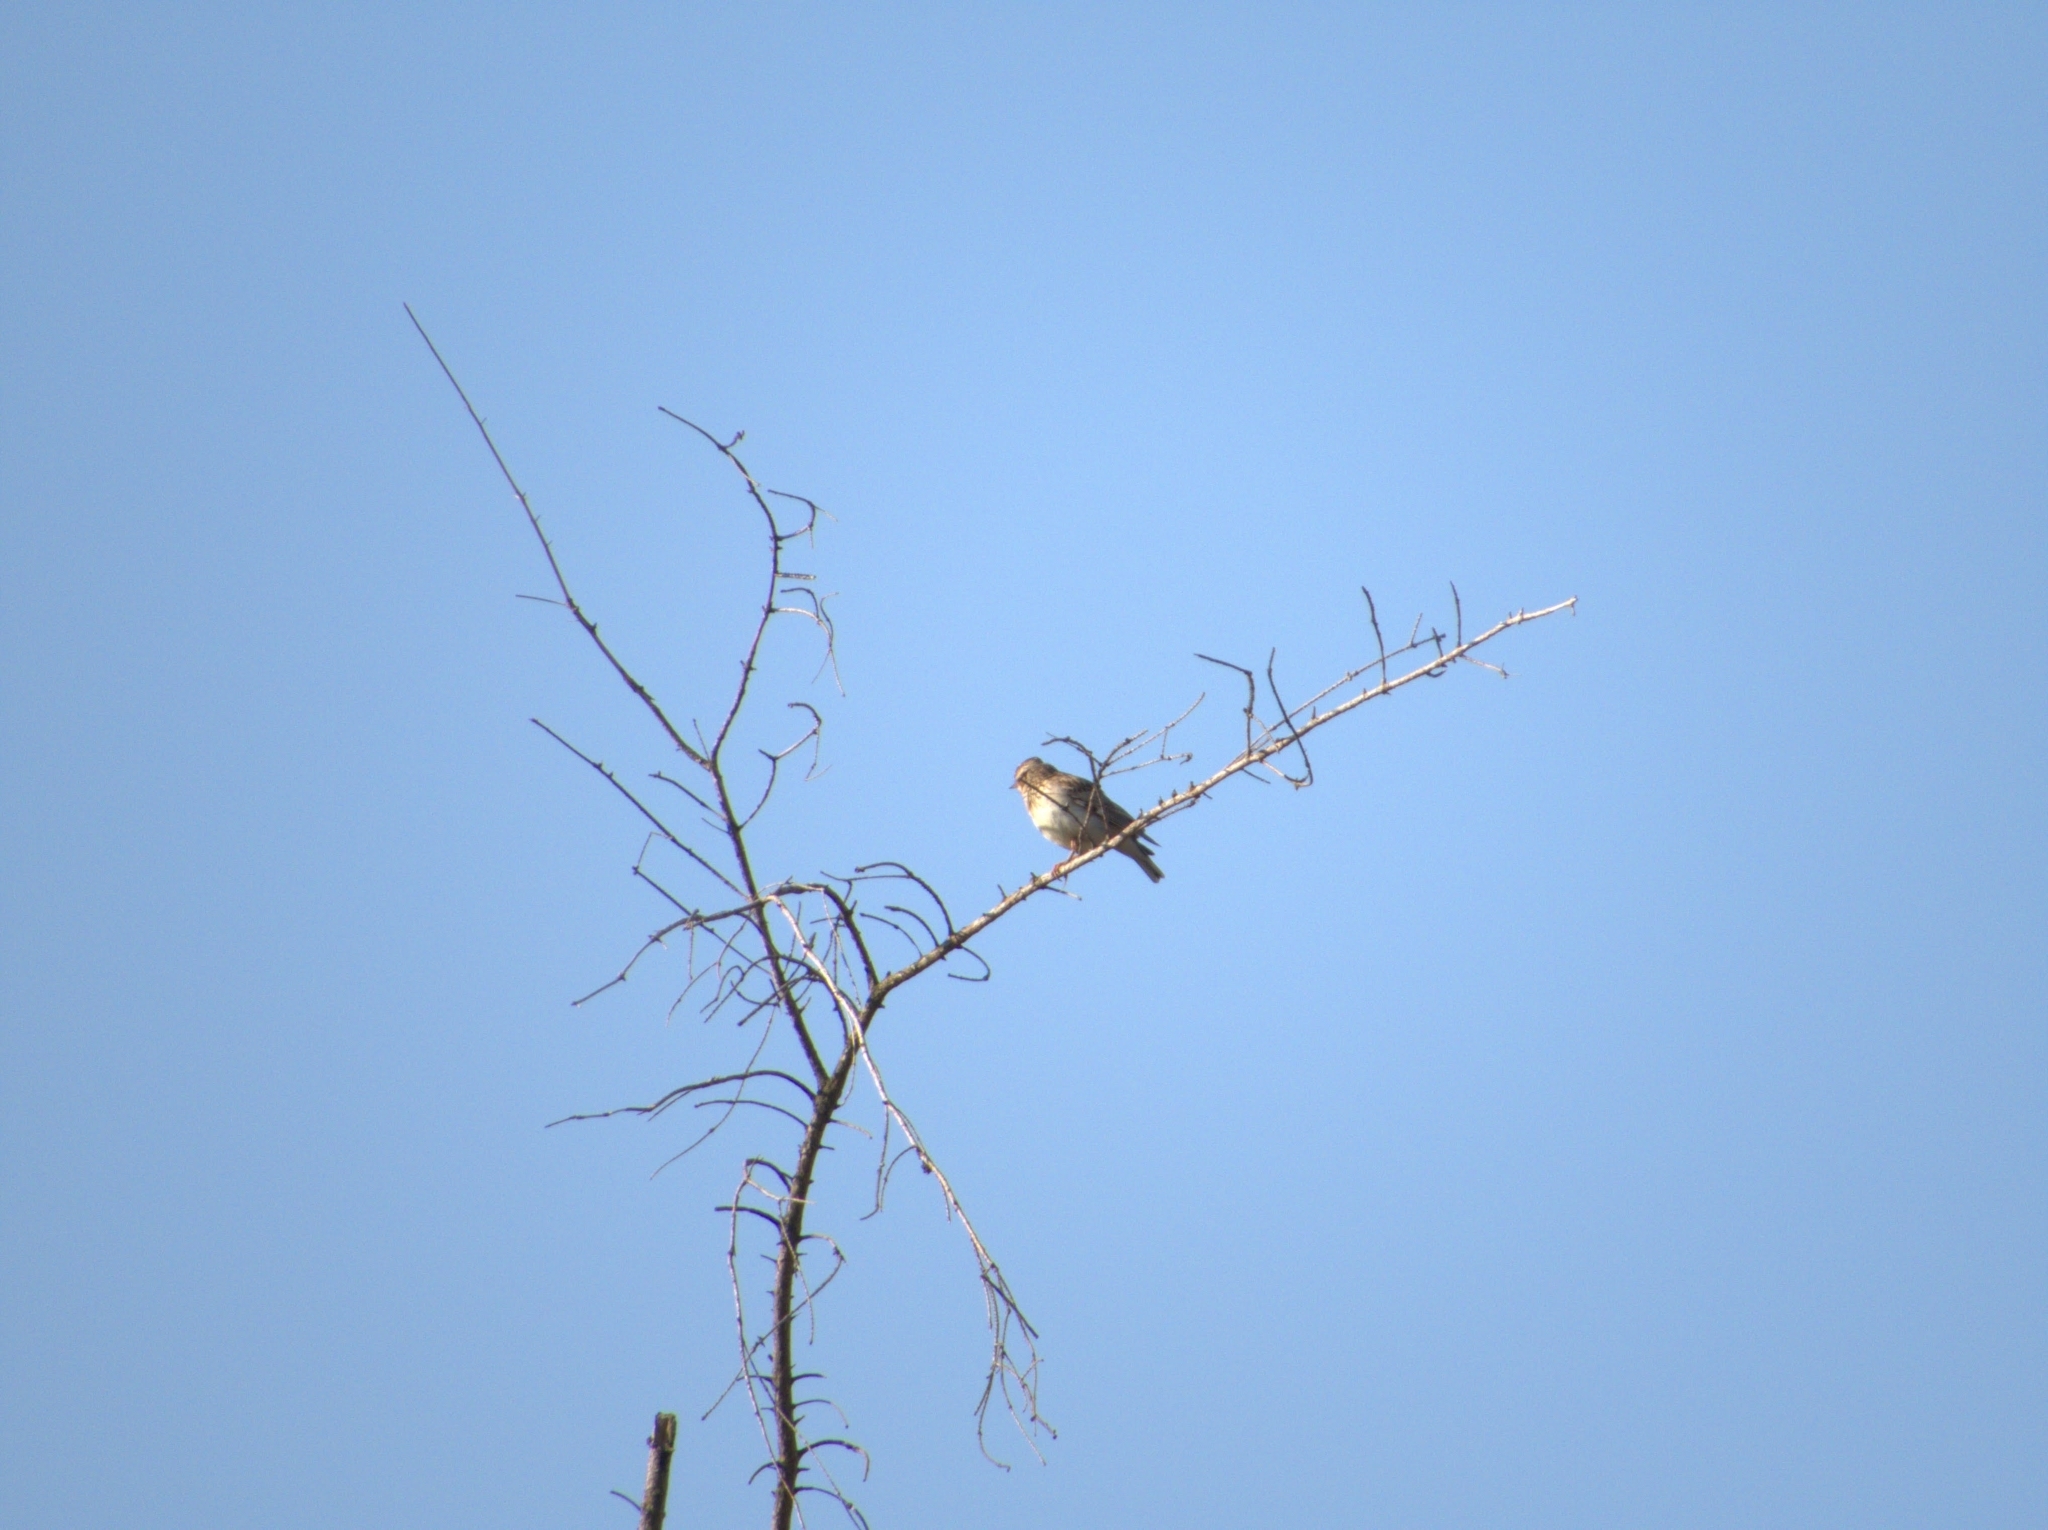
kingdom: Animalia
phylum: Chordata
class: Aves
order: Passeriformes
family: Alaudidae
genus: Lullula
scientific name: Lullula arborea
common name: Woodlark
